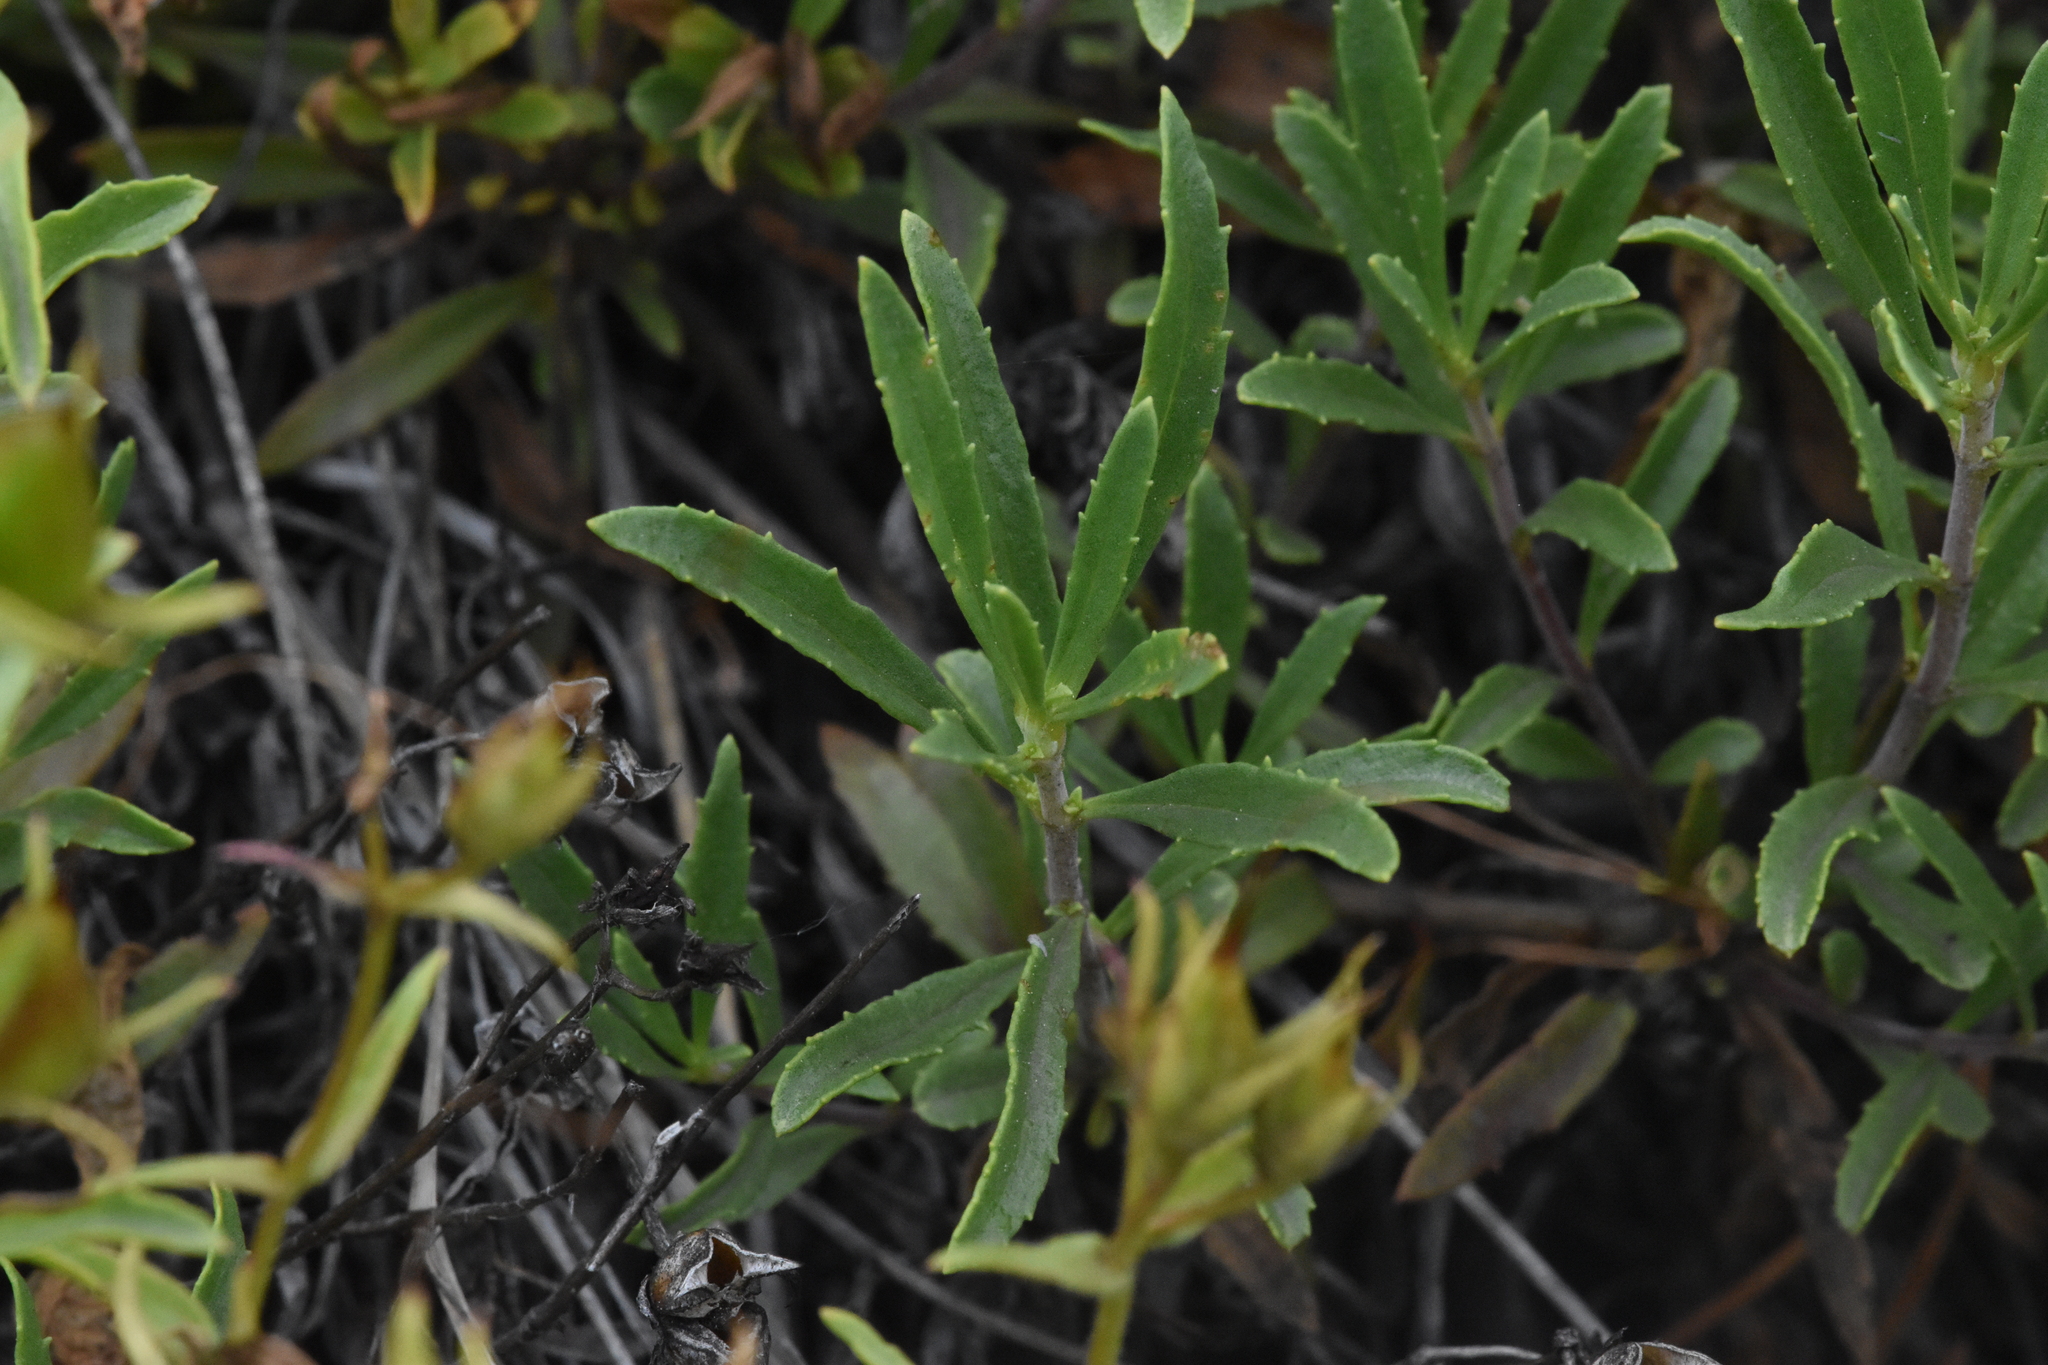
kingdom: Plantae
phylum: Tracheophyta
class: Magnoliopsida
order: Lamiales
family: Plantaginaceae
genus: Penstemon
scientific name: Penstemon fruticosus
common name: Bush penstemon
